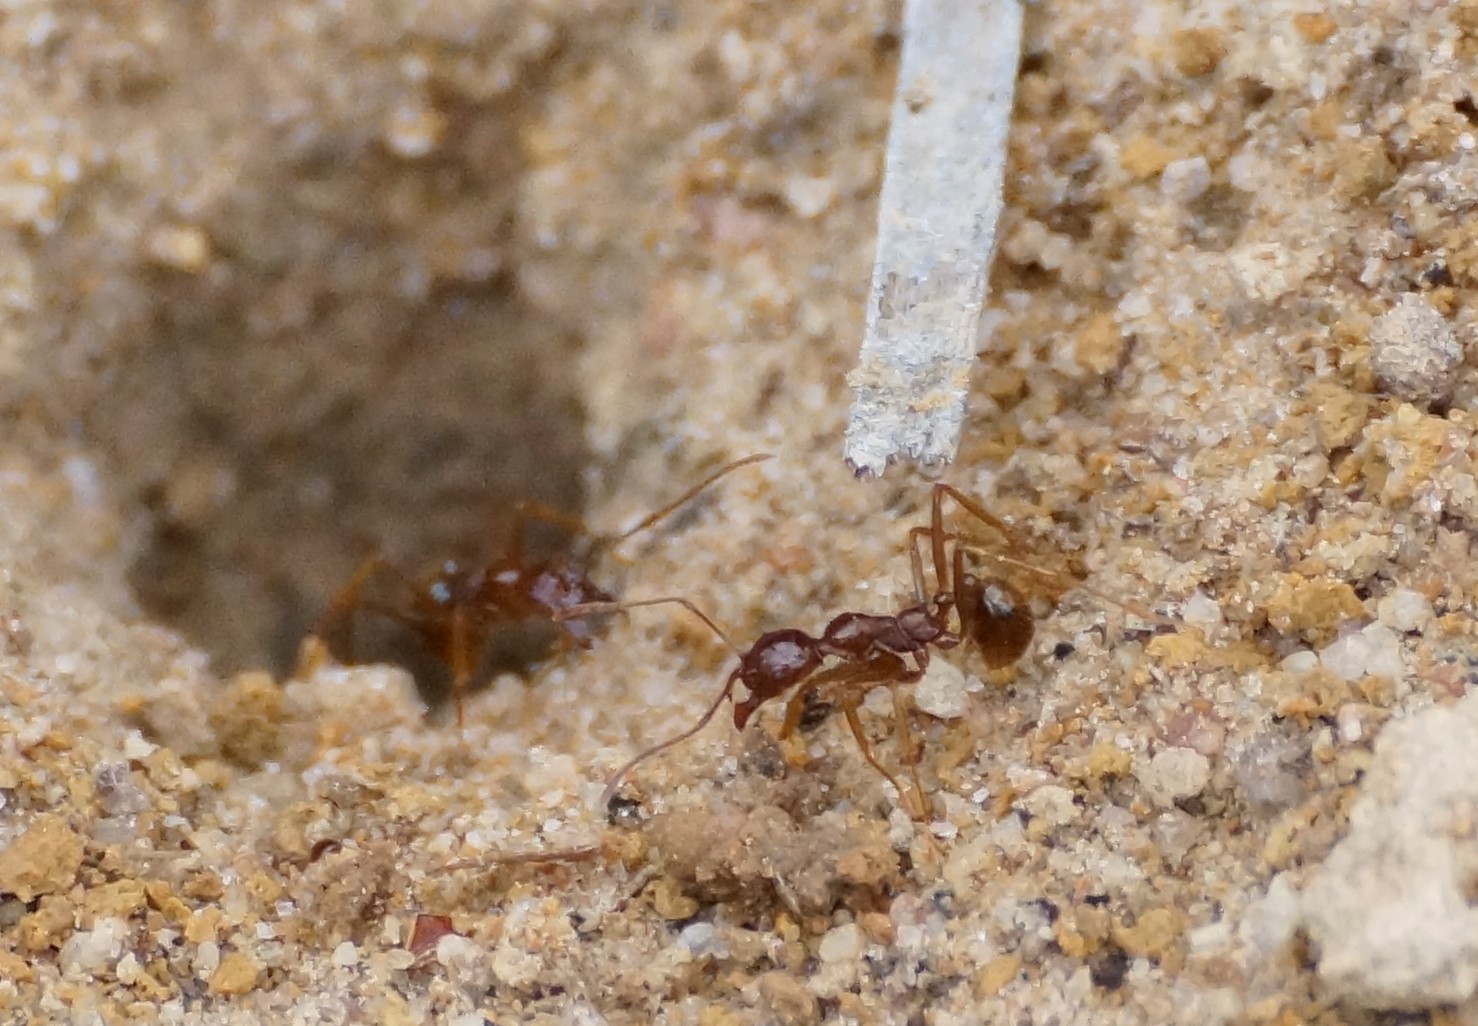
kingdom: Animalia
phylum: Arthropoda
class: Insecta
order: Hymenoptera
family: Formicidae
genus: Aphaenogaster
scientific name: Aphaenogaster longiceps
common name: Funnel ant
